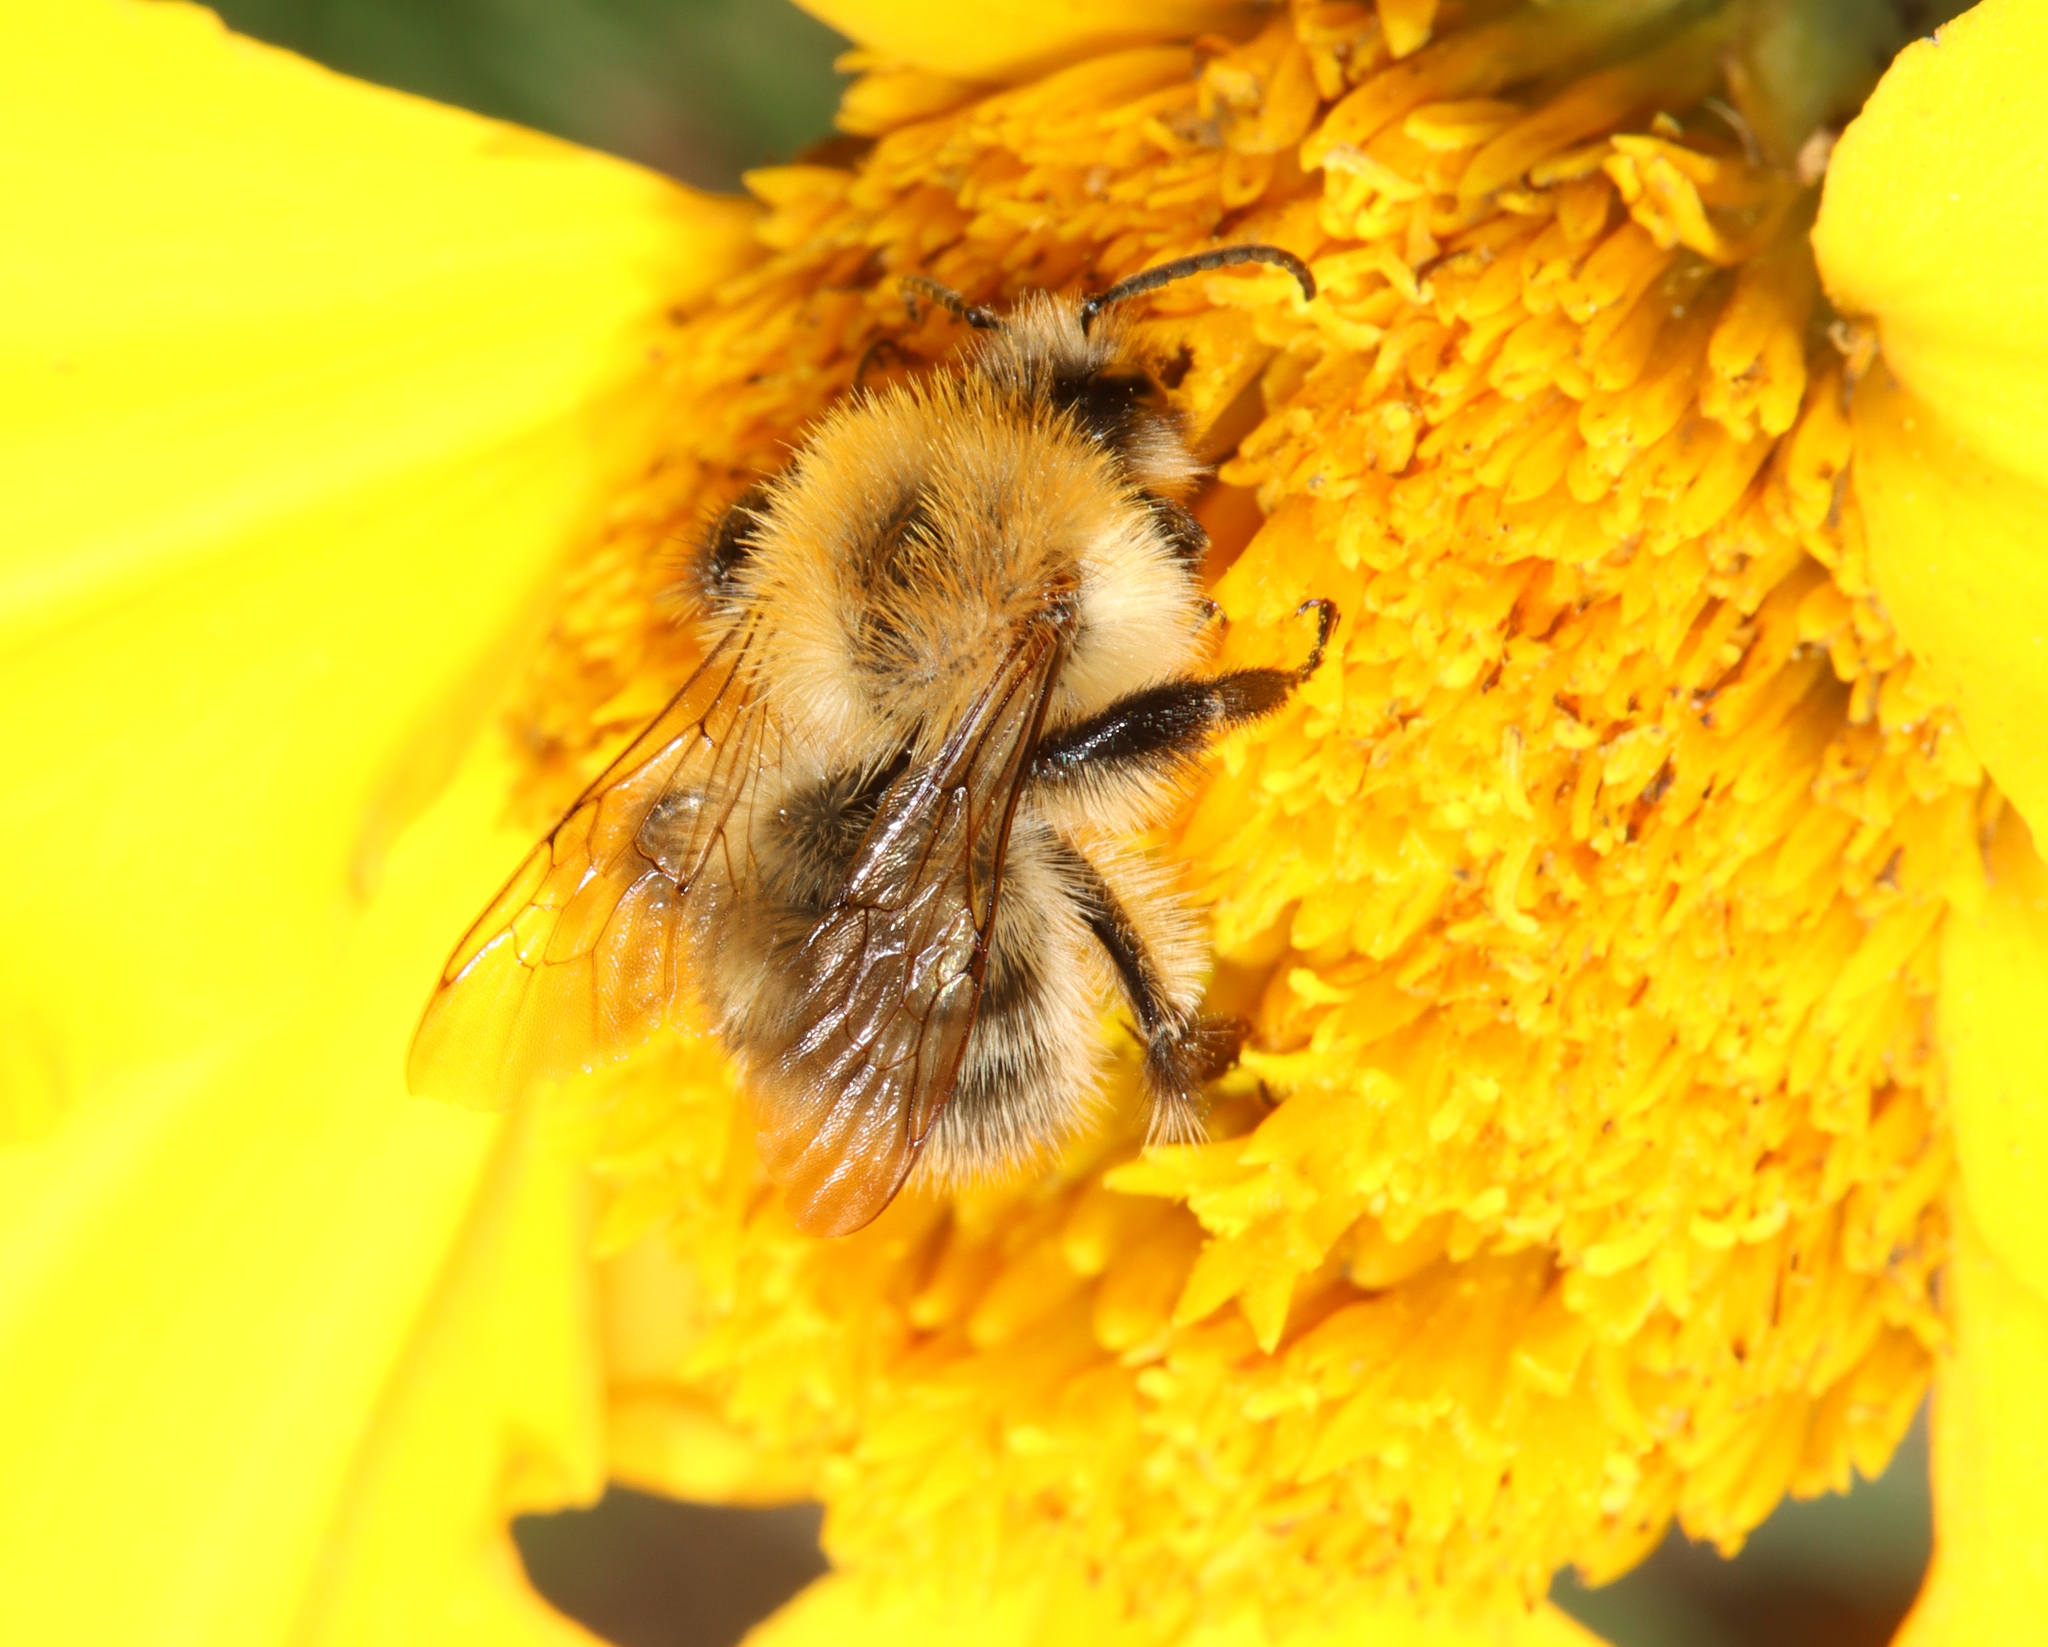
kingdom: Animalia
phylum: Arthropoda
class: Insecta
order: Hymenoptera
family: Apidae
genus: Bombus
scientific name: Bombus pascuorum
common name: Common carder bee
